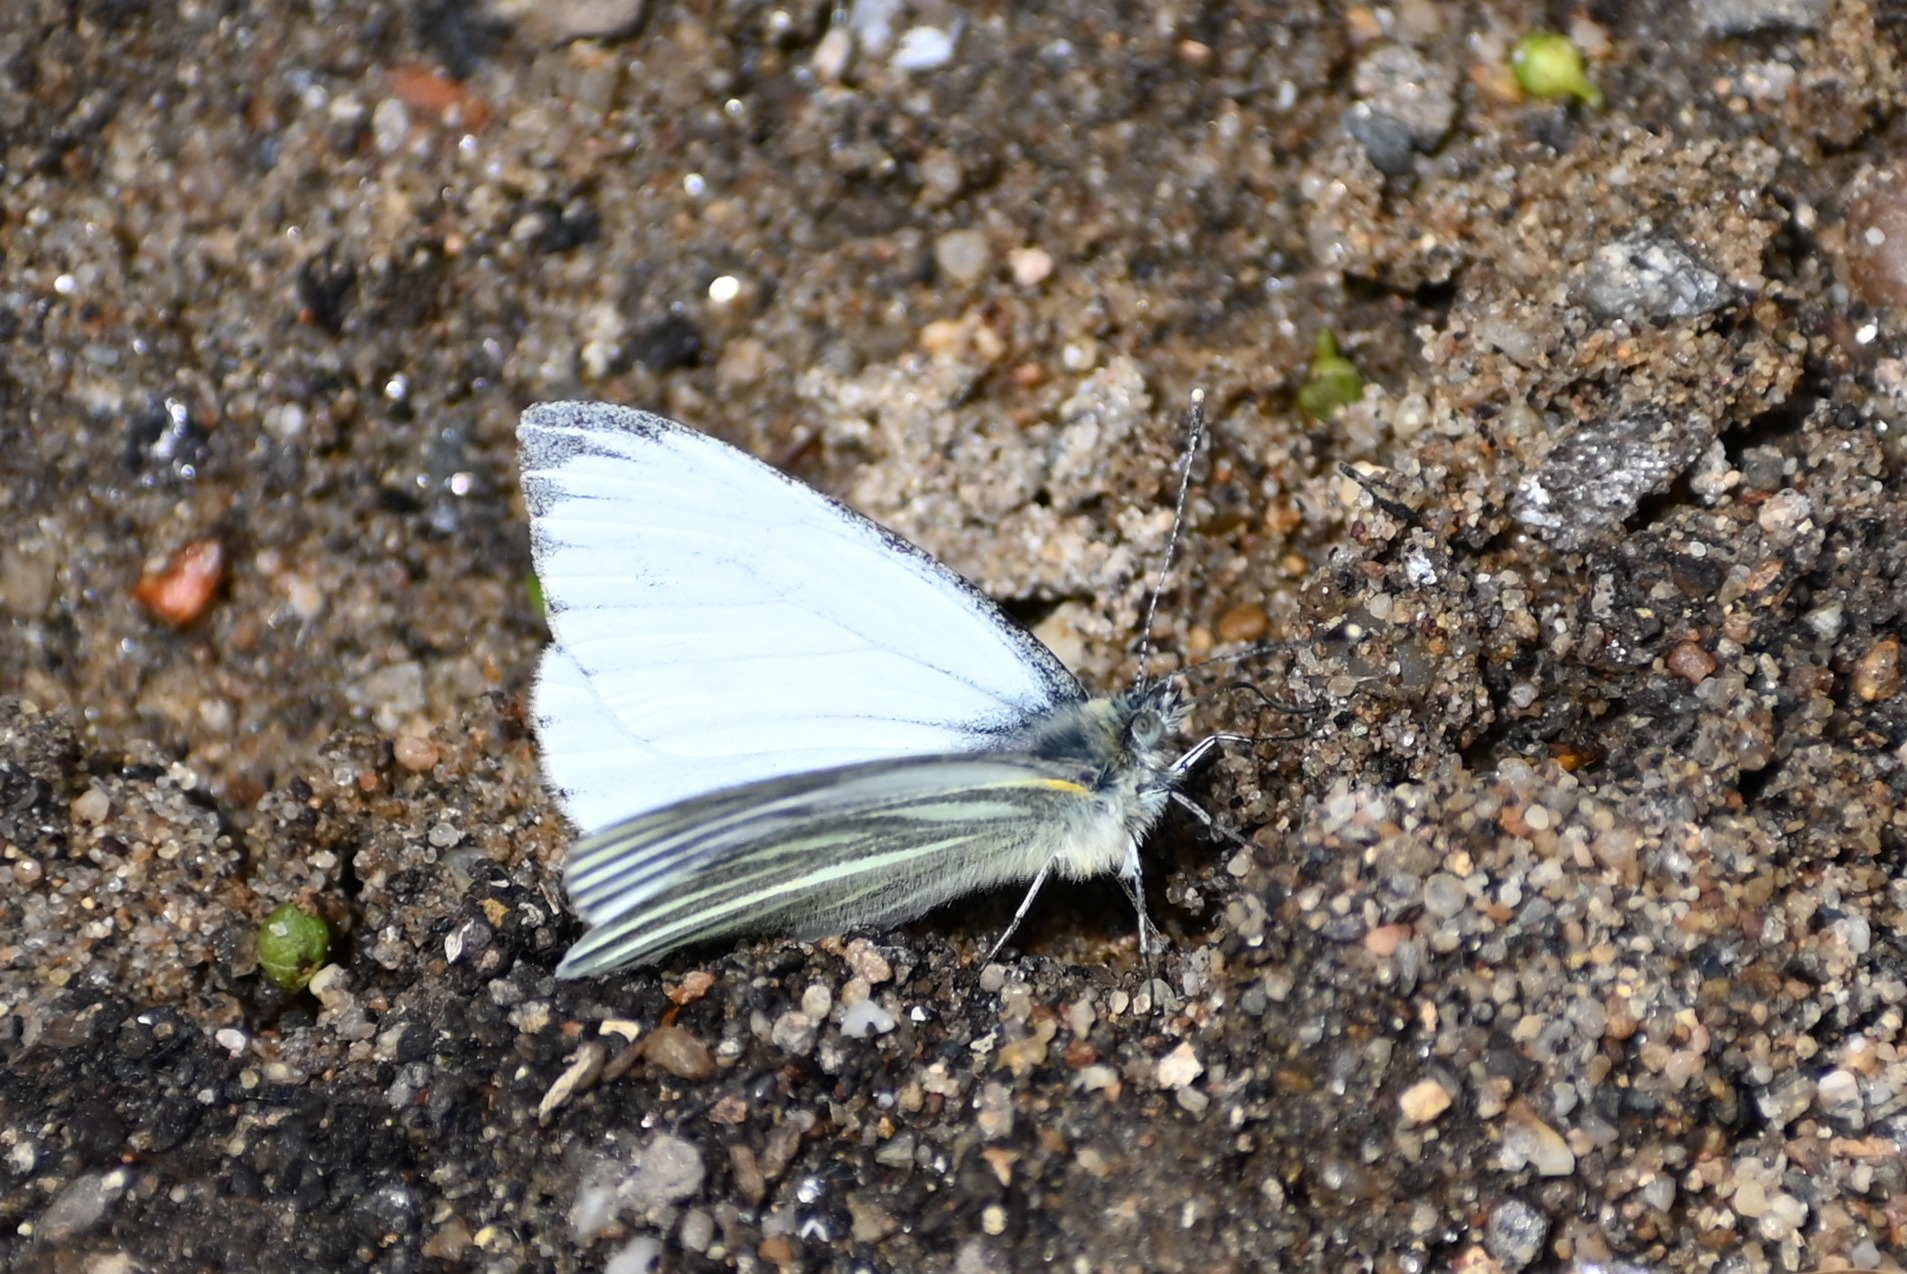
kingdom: Animalia
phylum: Arthropoda
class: Insecta
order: Lepidoptera
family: Pieridae
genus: Pieris
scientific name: Pieris napi
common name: Green-veined white
